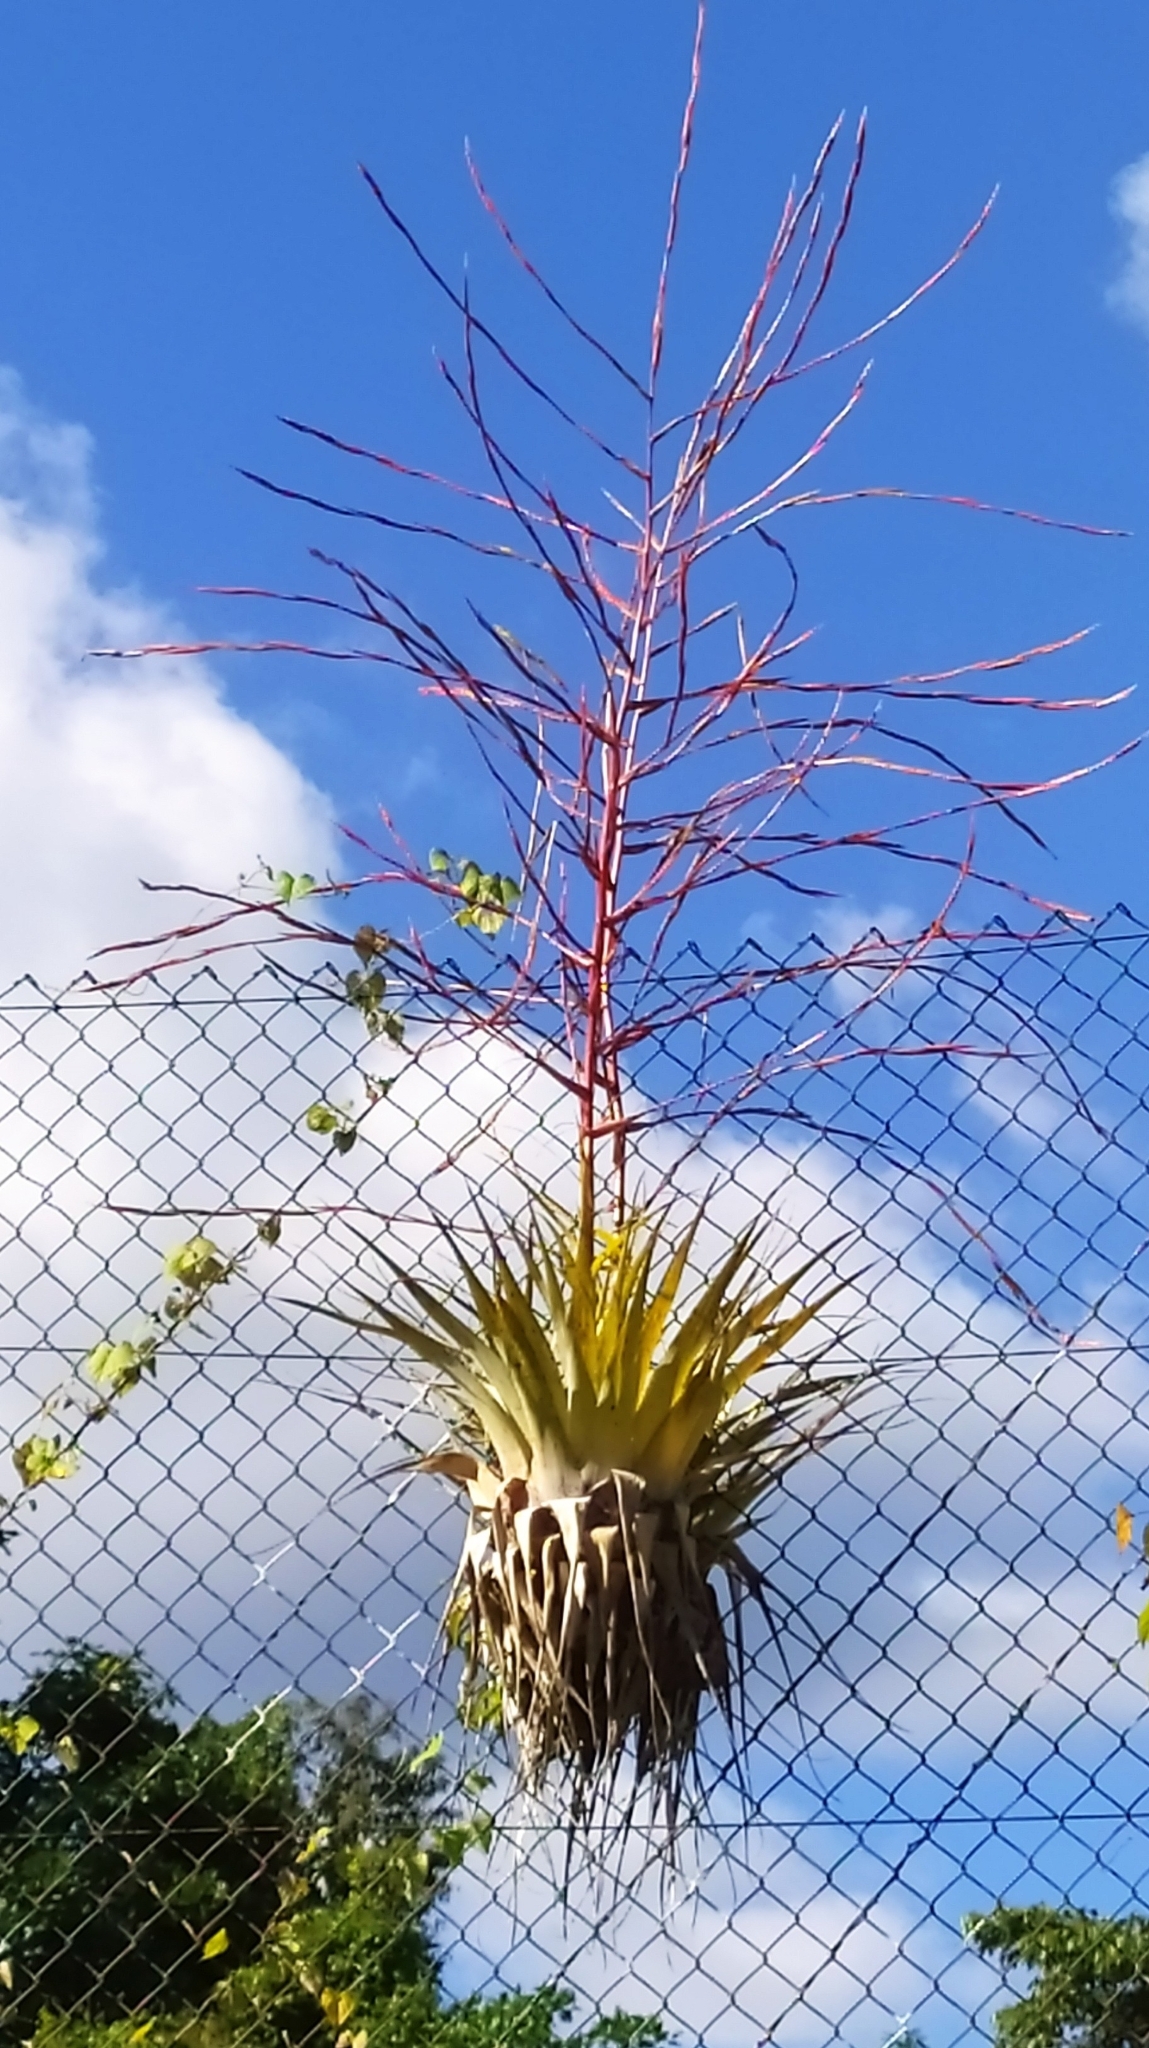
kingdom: Plantae
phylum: Tracheophyta
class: Liliopsida
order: Poales
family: Bromeliaceae
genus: Tillandsia
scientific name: Tillandsia adpressiflora
